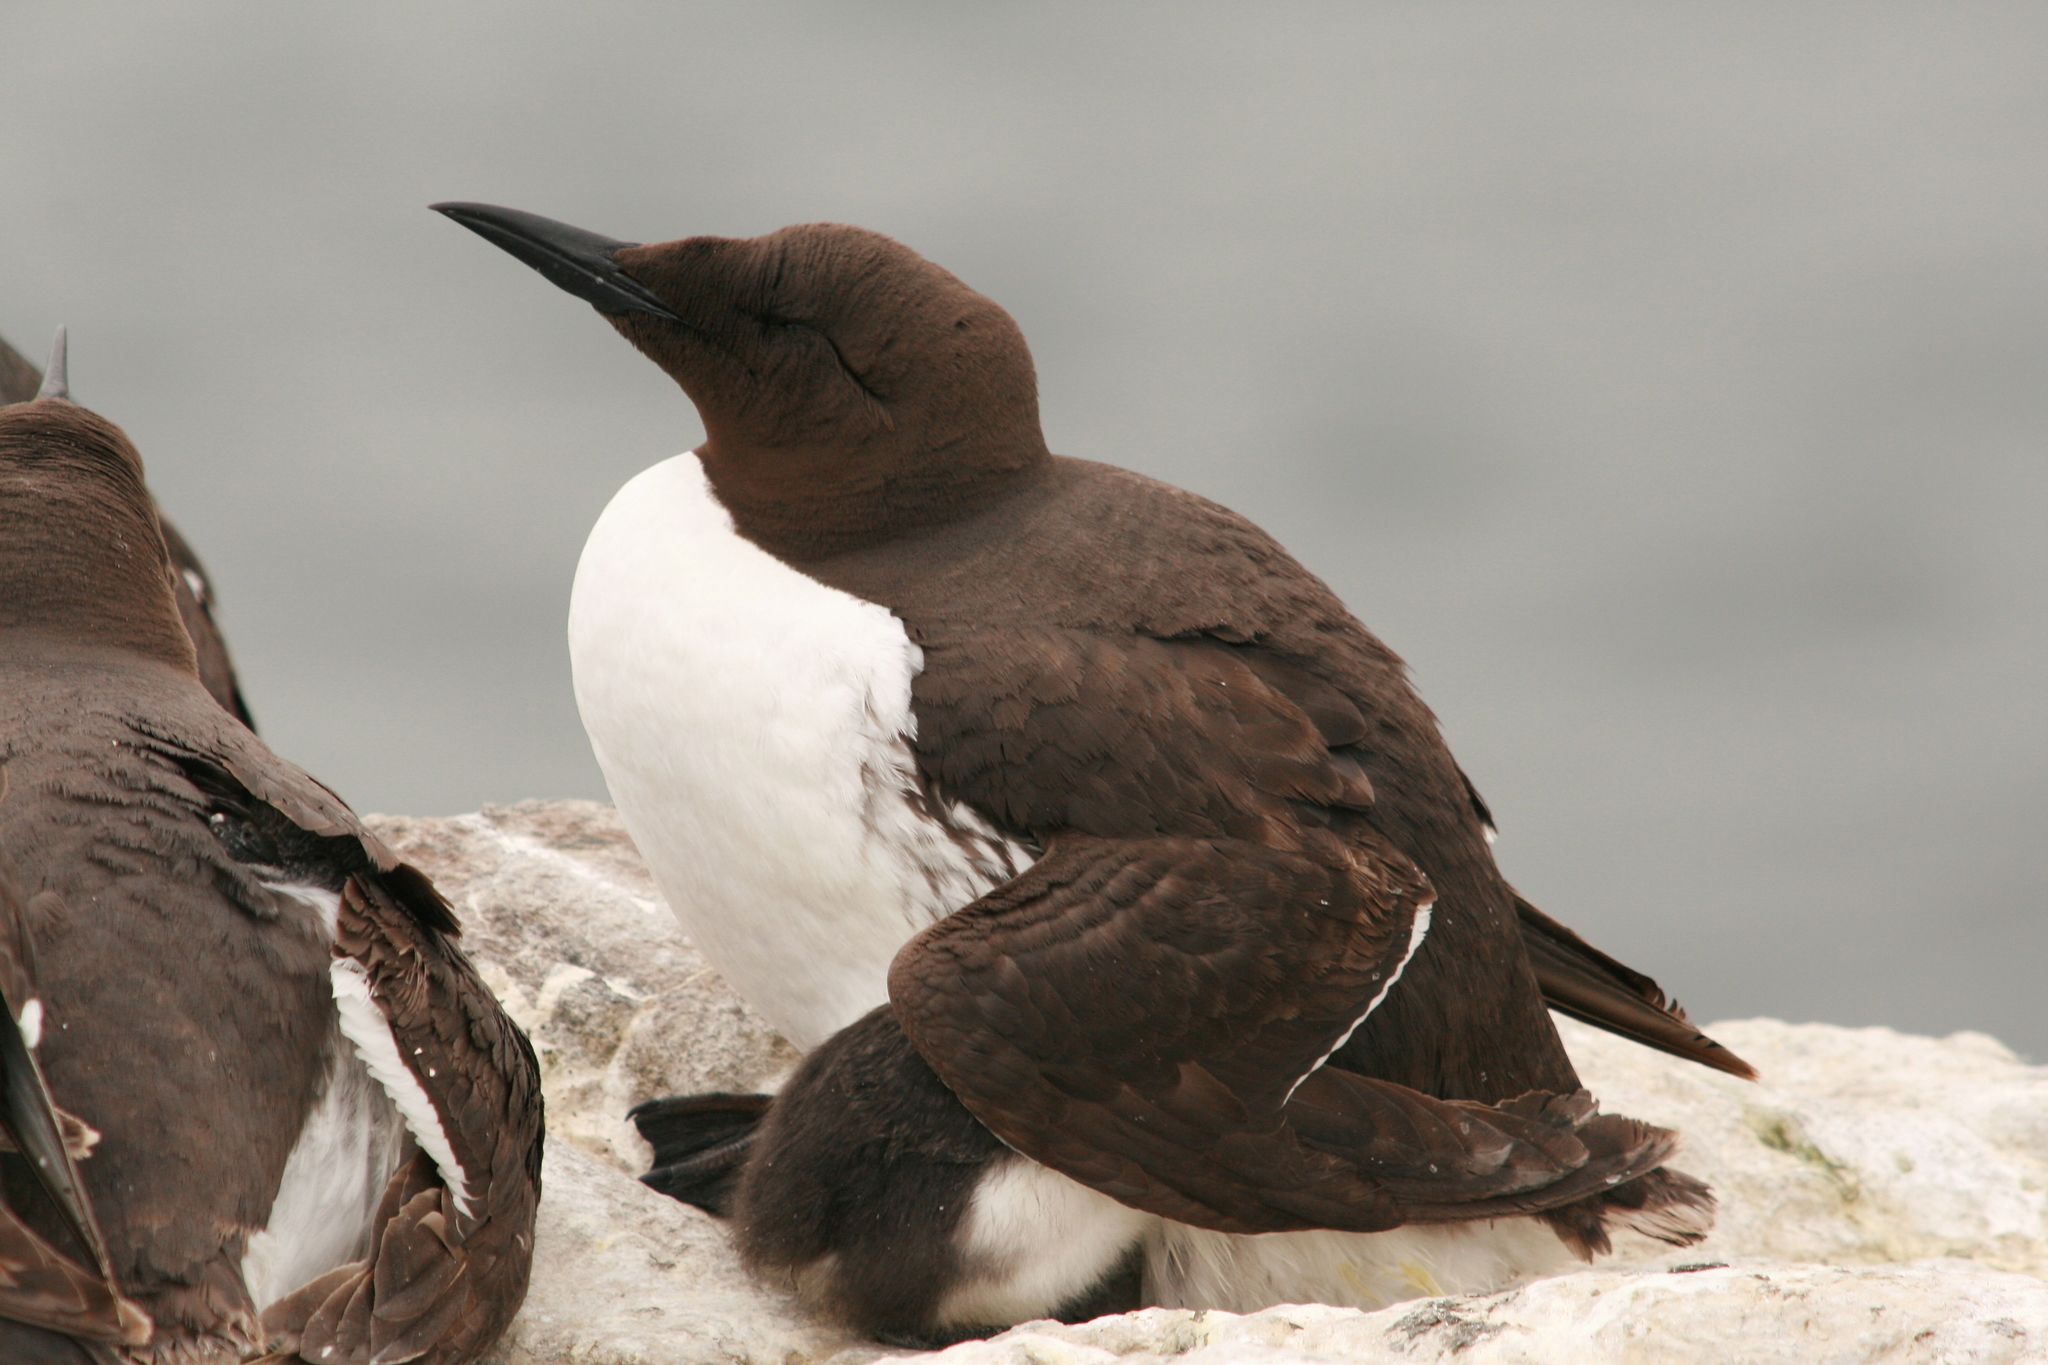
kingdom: Animalia
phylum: Chordata
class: Aves
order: Charadriiformes
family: Alcidae
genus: Uria
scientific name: Uria aalge
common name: Common murre
